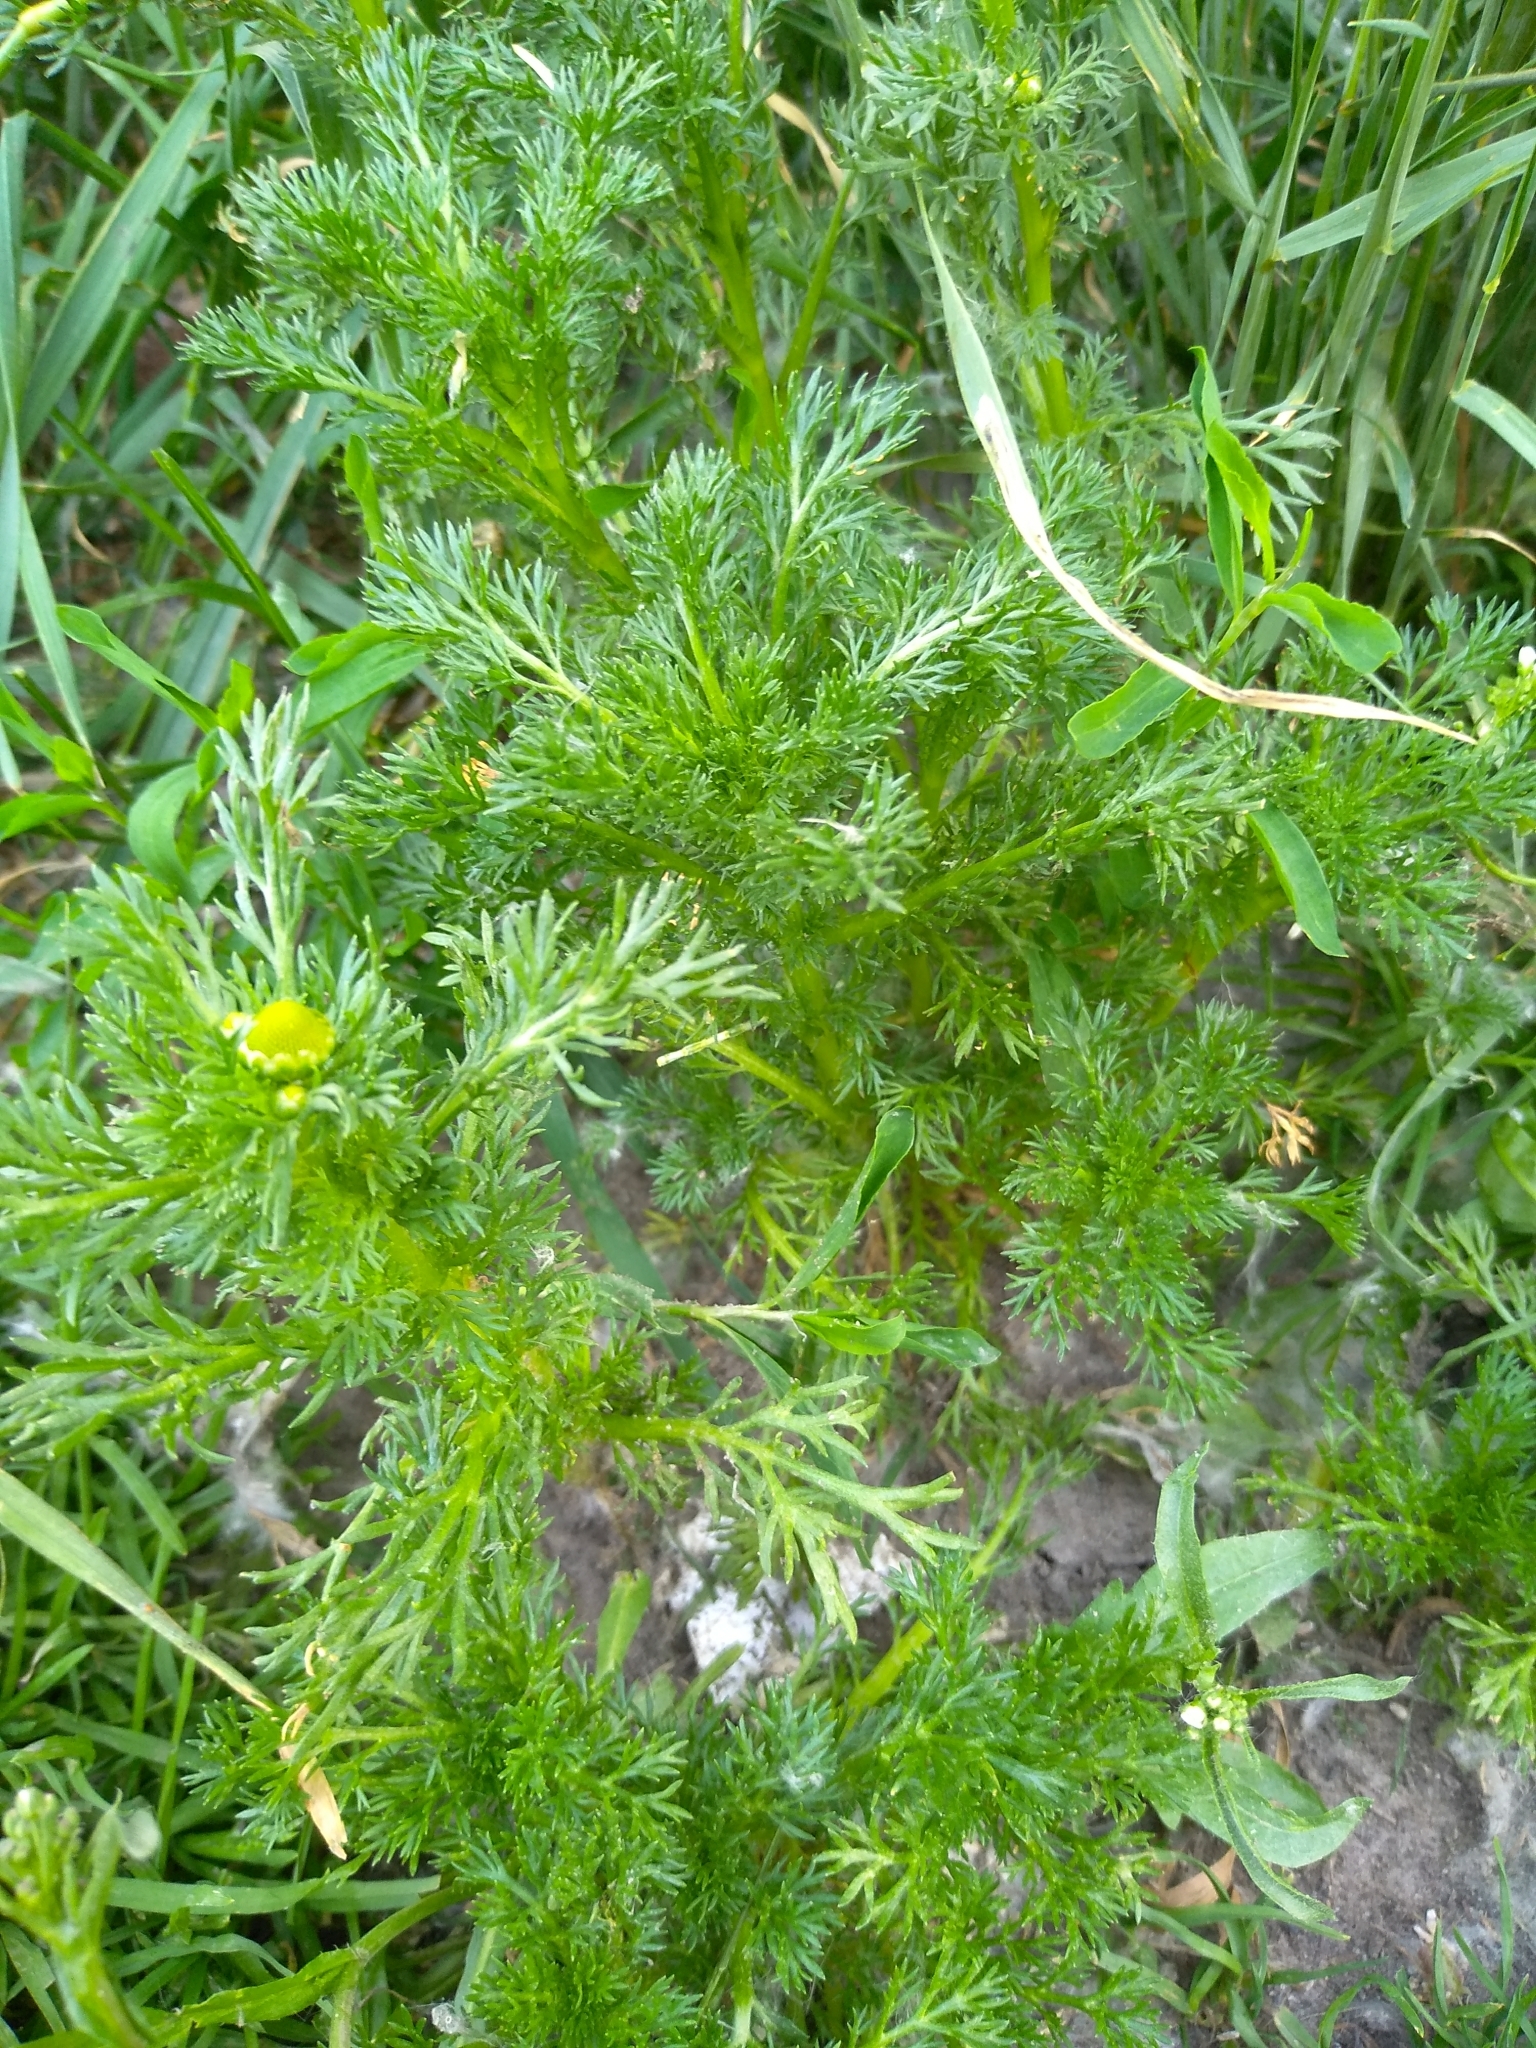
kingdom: Plantae
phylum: Tracheophyta
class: Magnoliopsida
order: Asterales
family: Asteraceae
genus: Matricaria
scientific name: Matricaria discoidea
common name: Disc mayweed
